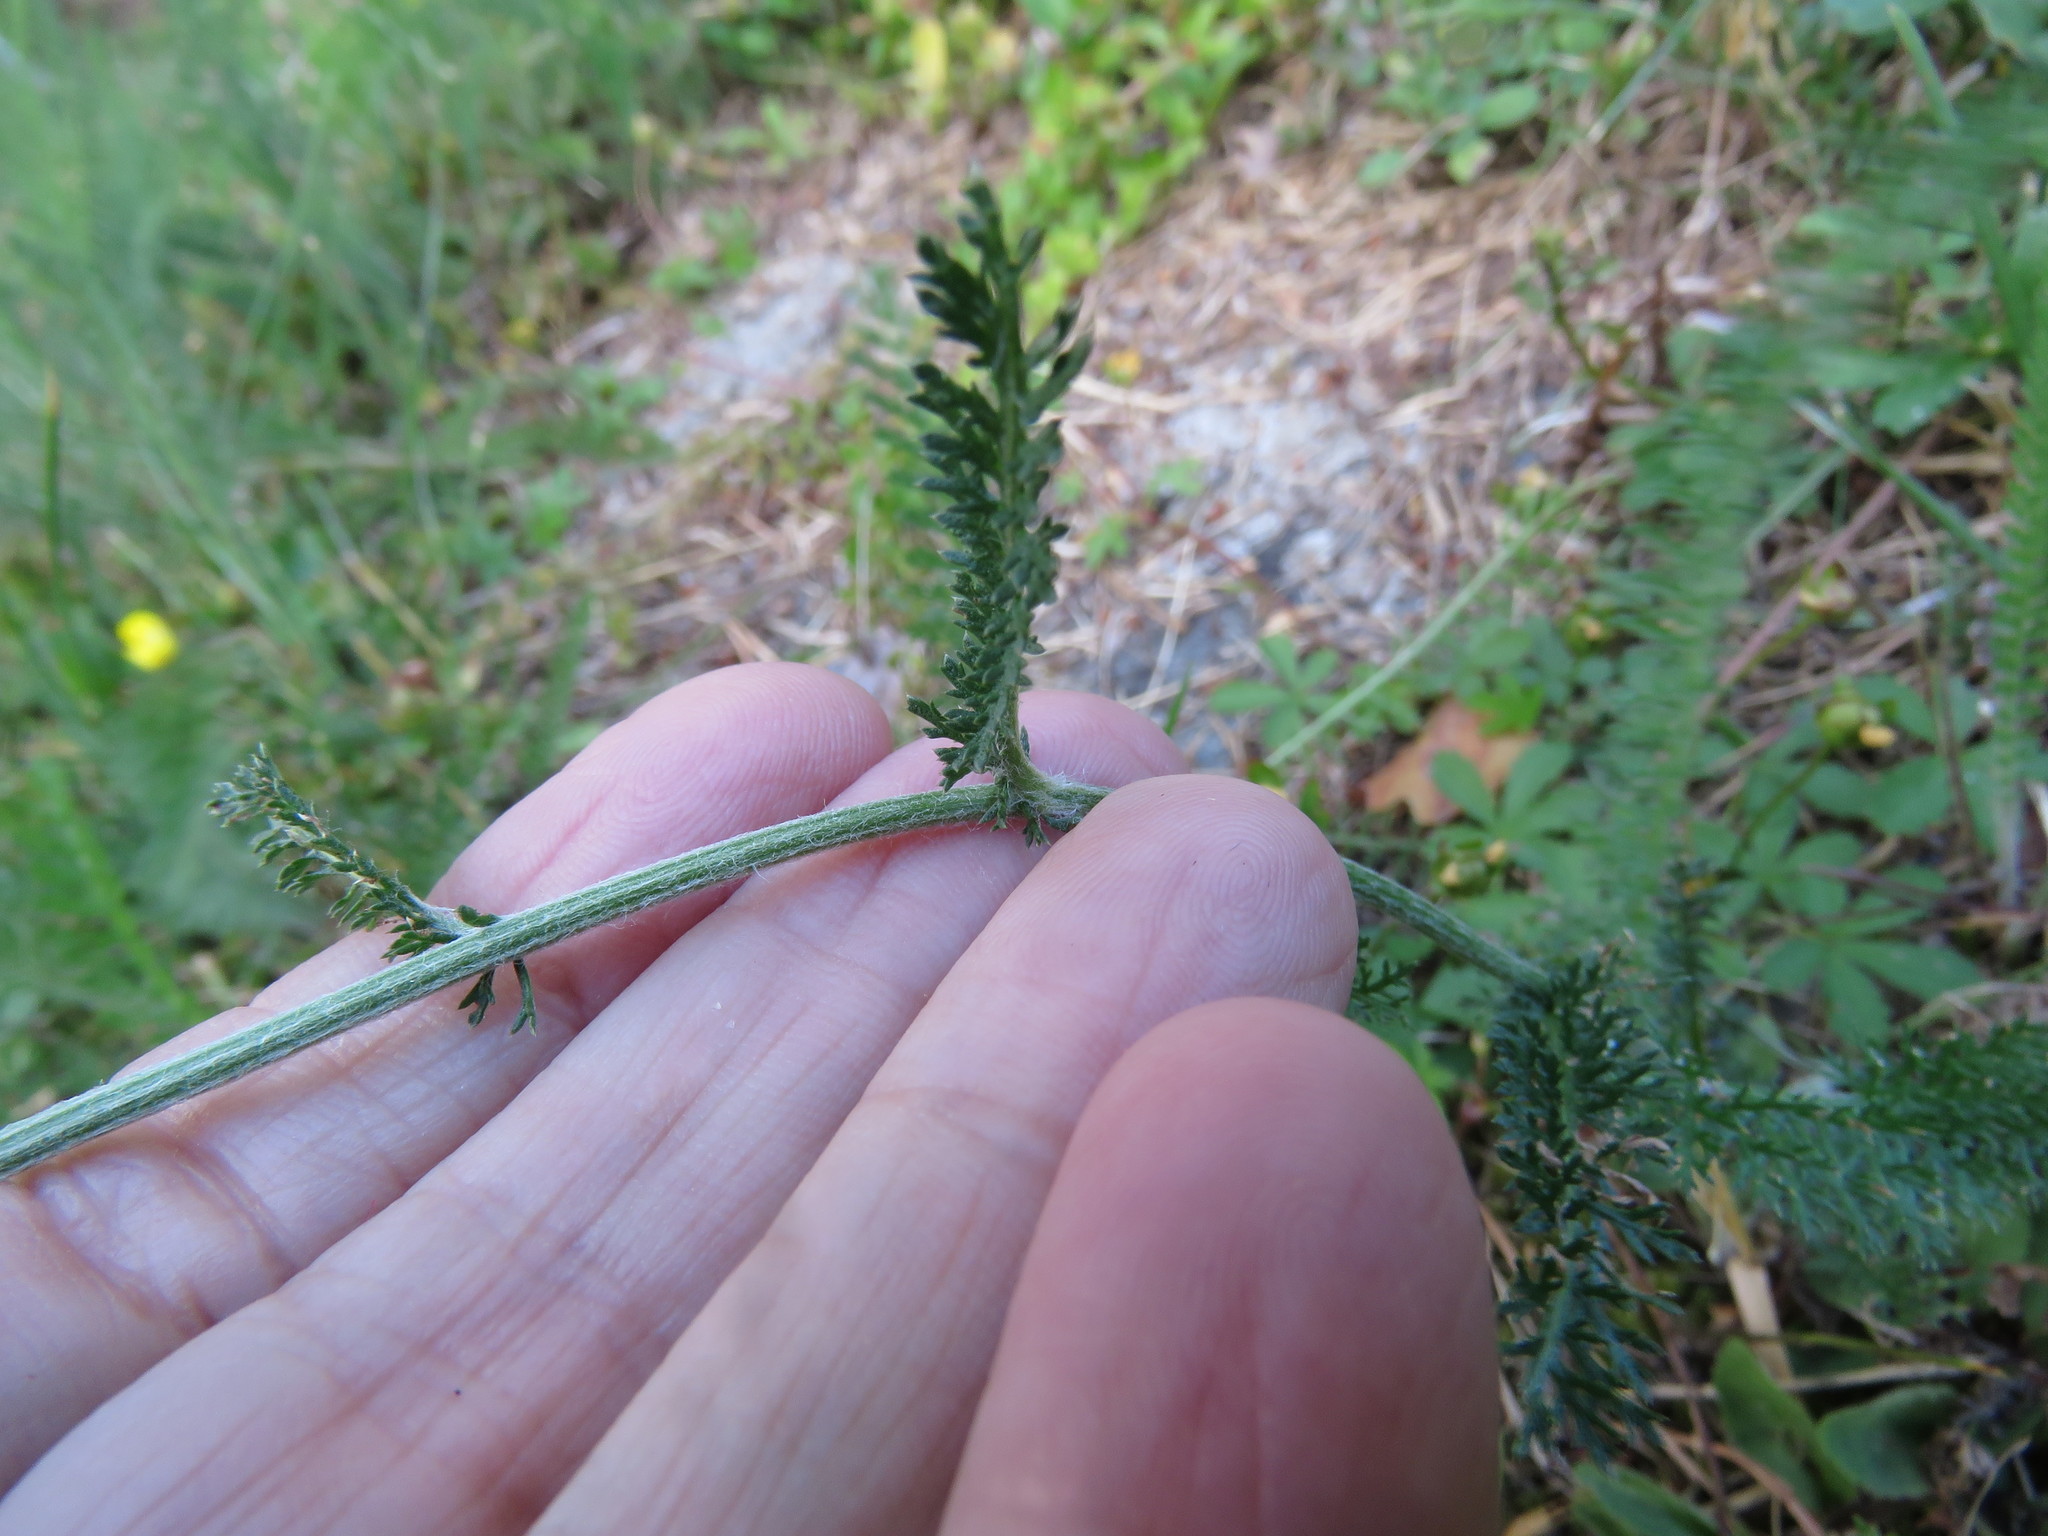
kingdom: Plantae
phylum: Tracheophyta
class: Magnoliopsida
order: Asterales
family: Asteraceae
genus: Achillea
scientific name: Achillea millefolium
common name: Yarrow
